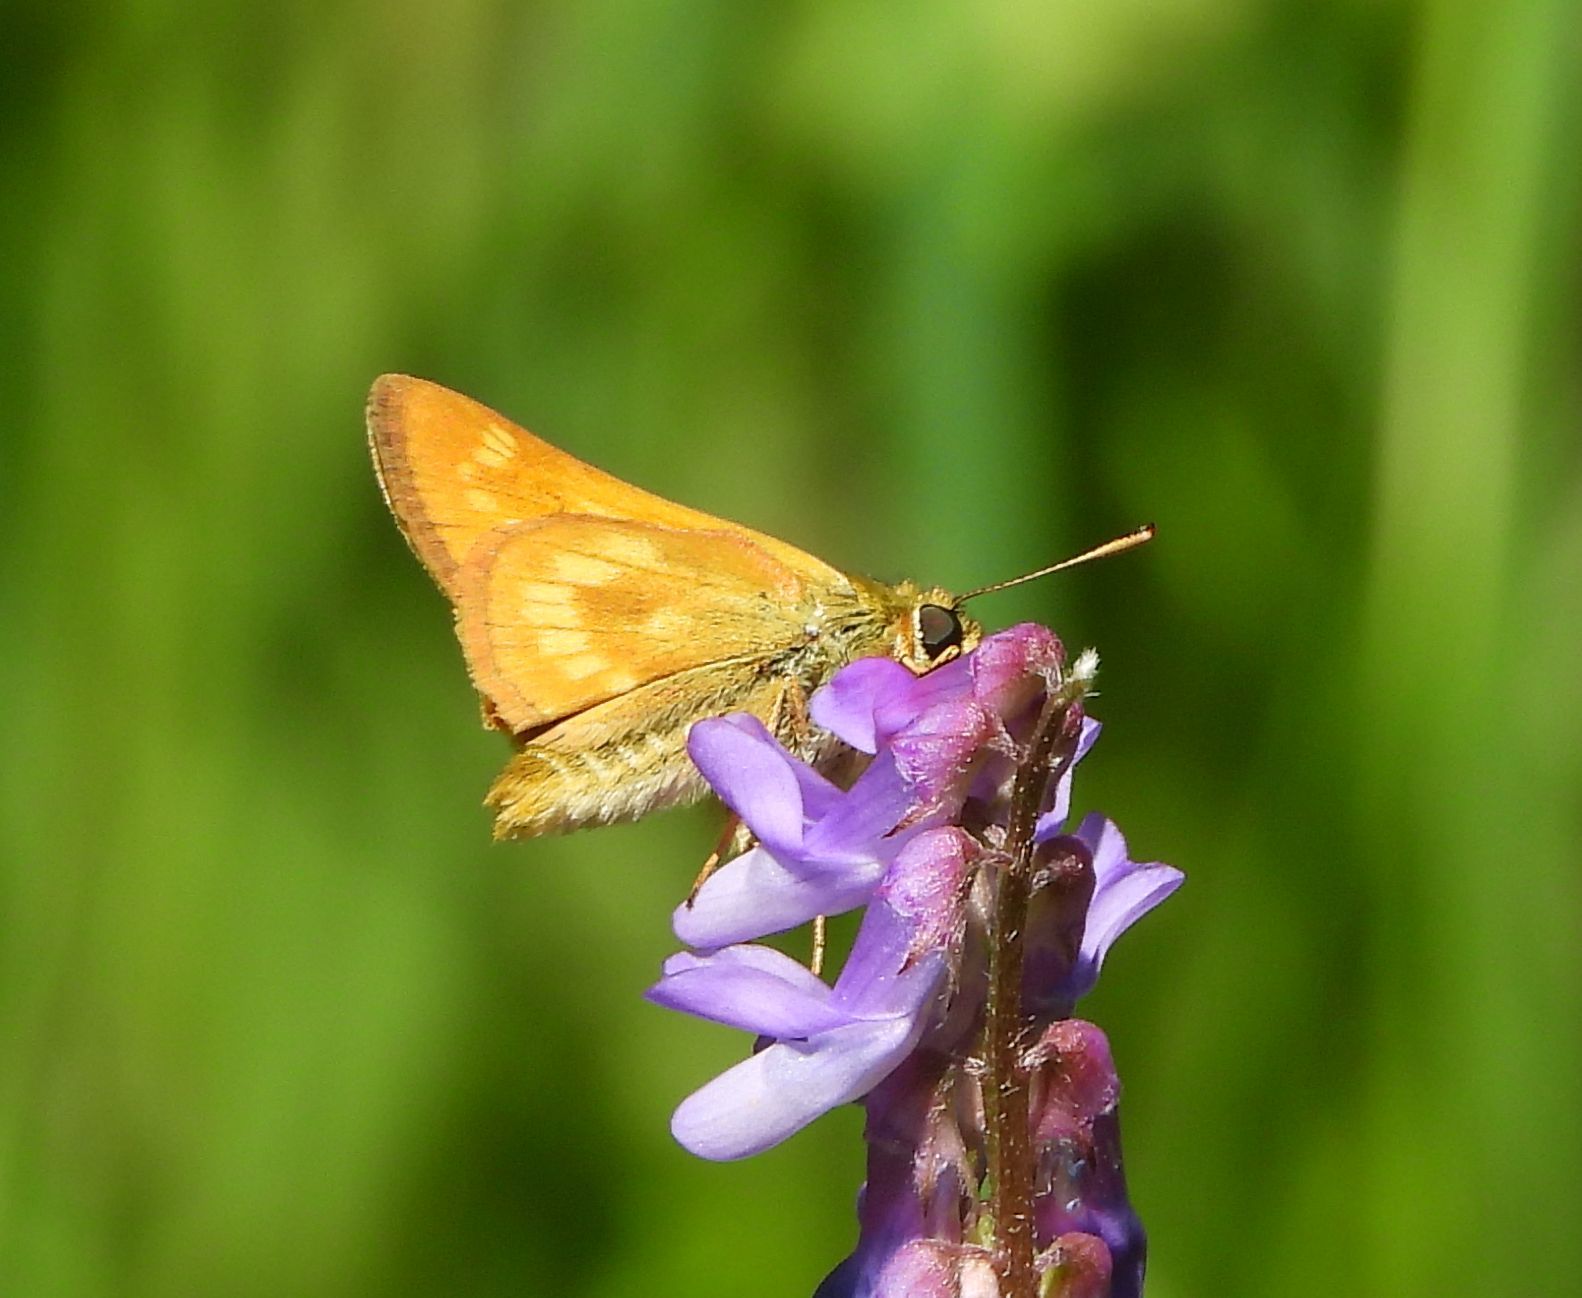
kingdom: Animalia
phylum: Arthropoda
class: Insecta
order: Lepidoptera
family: Hesperiidae
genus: Polites
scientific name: Polites mystic
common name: Long dash
